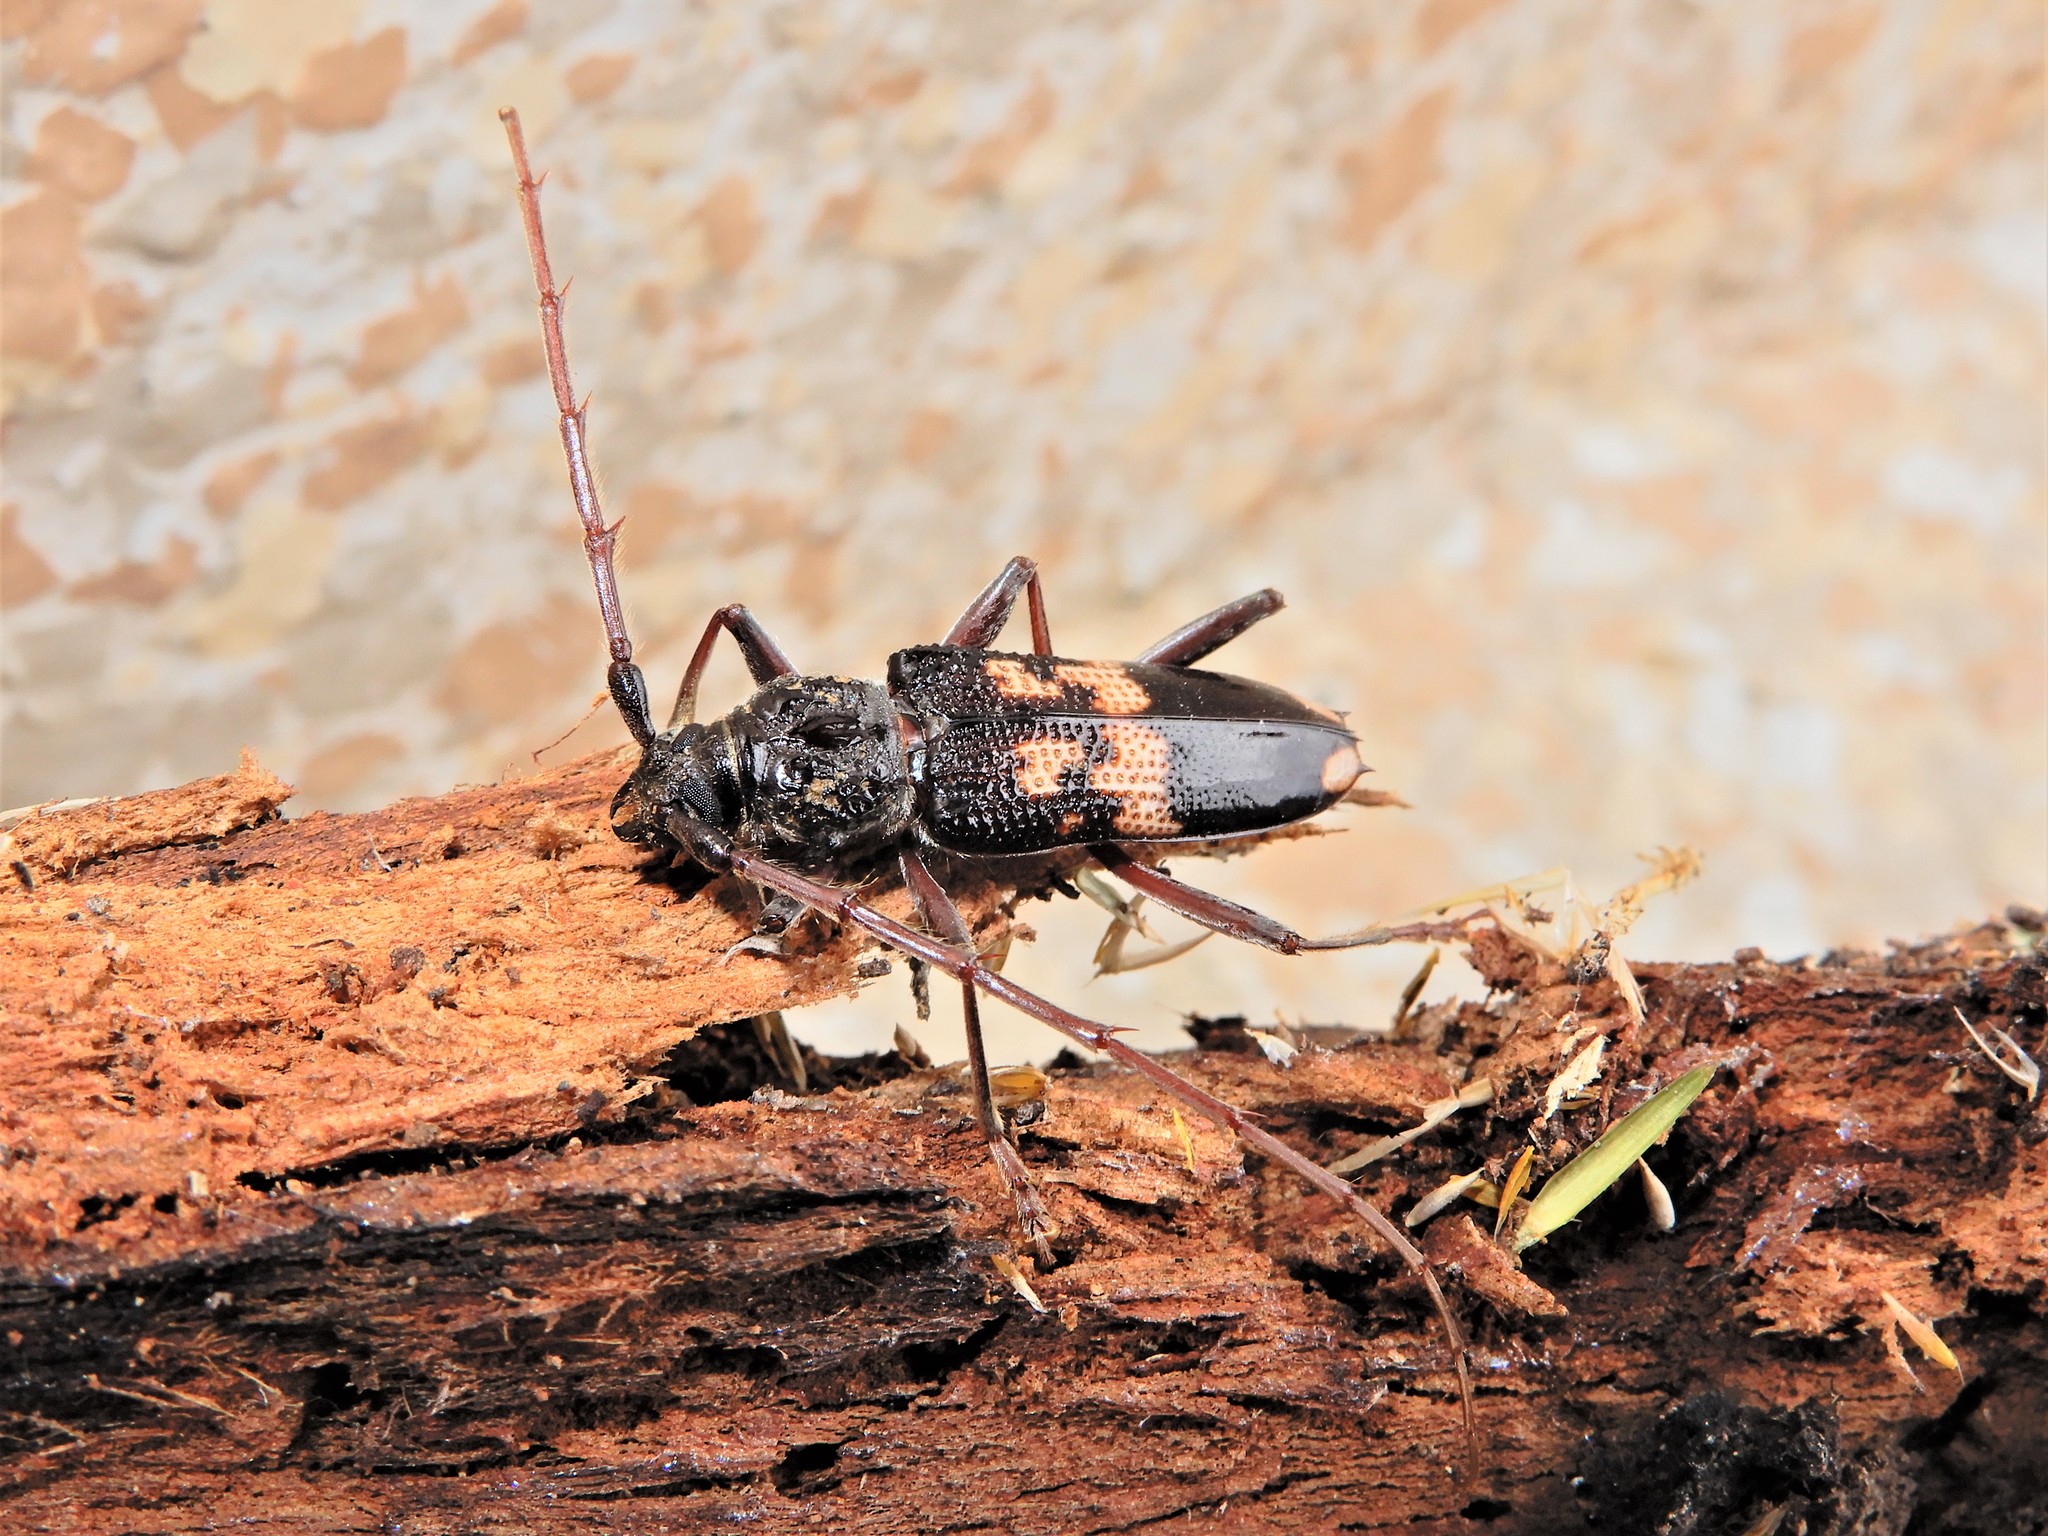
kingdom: Animalia
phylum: Arthropoda
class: Insecta
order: Coleoptera
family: Cerambycidae
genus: Phoracantha
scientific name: Phoracantha semipunctata
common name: Eucalyptus longhorn borer
